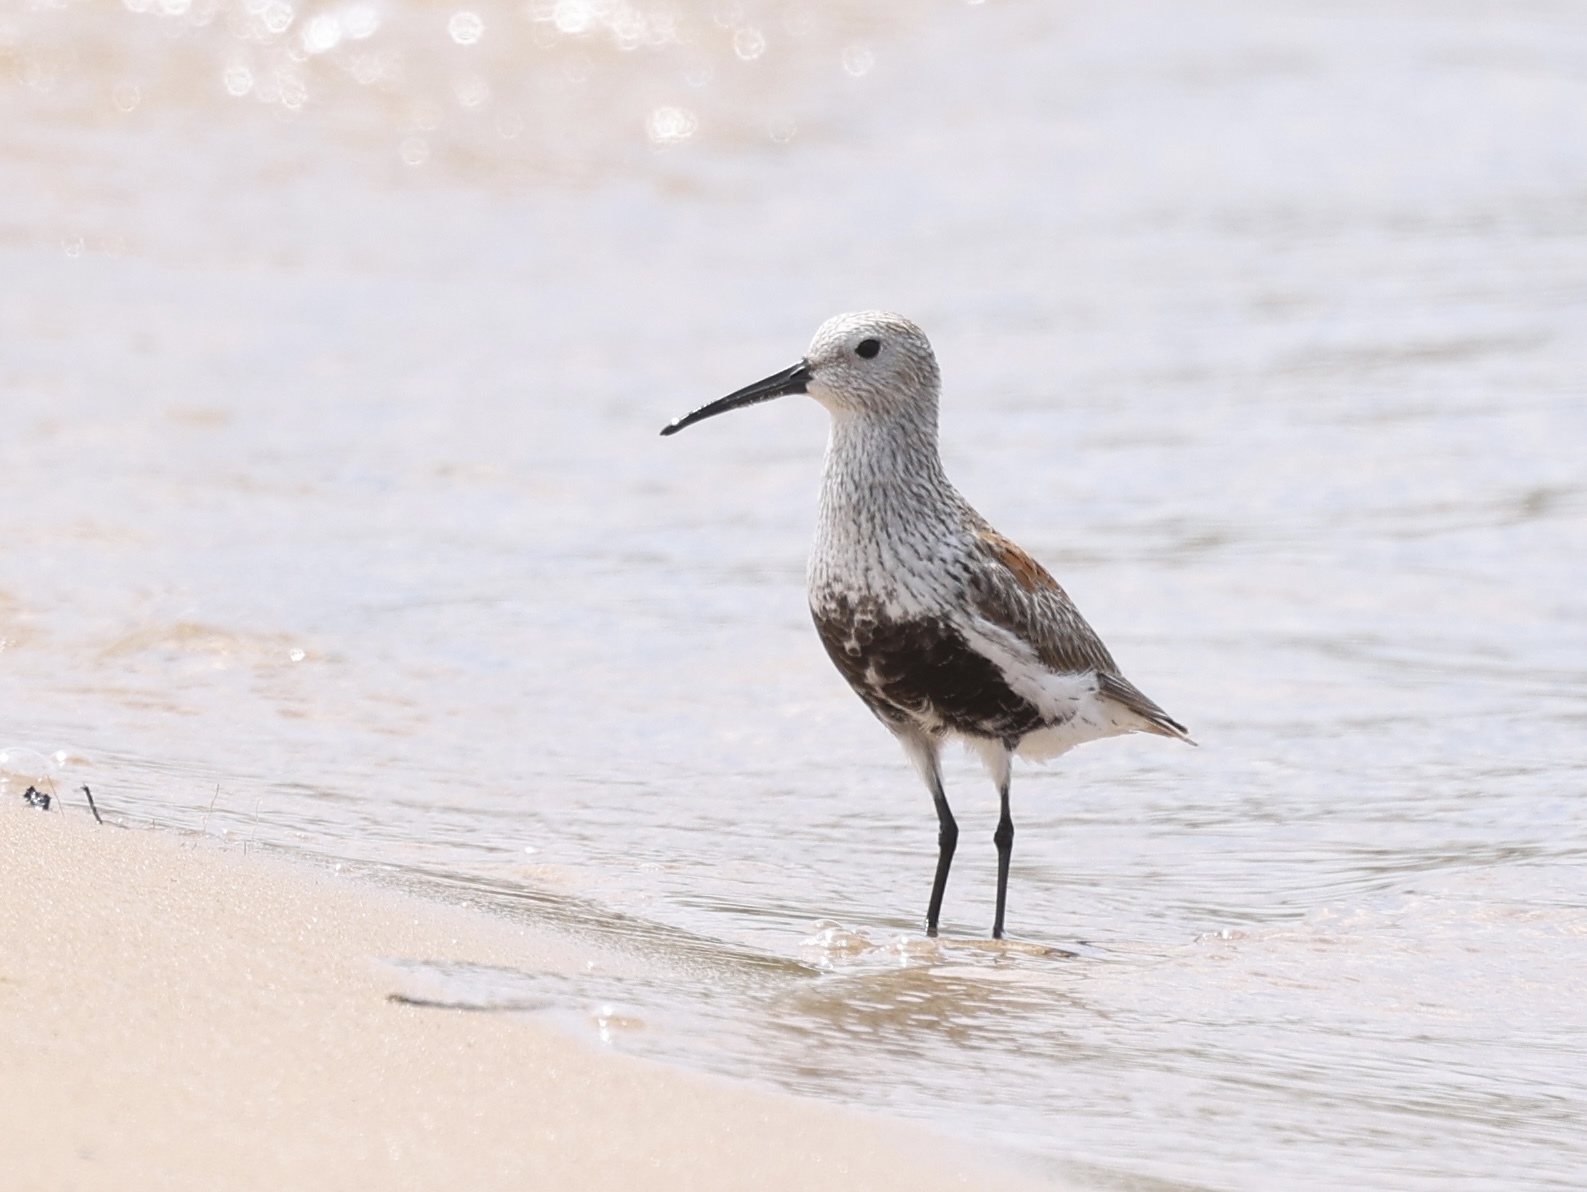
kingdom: Animalia
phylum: Chordata
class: Aves
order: Charadriiformes
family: Scolopacidae
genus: Calidris
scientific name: Calidris alpina
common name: Dunlin
